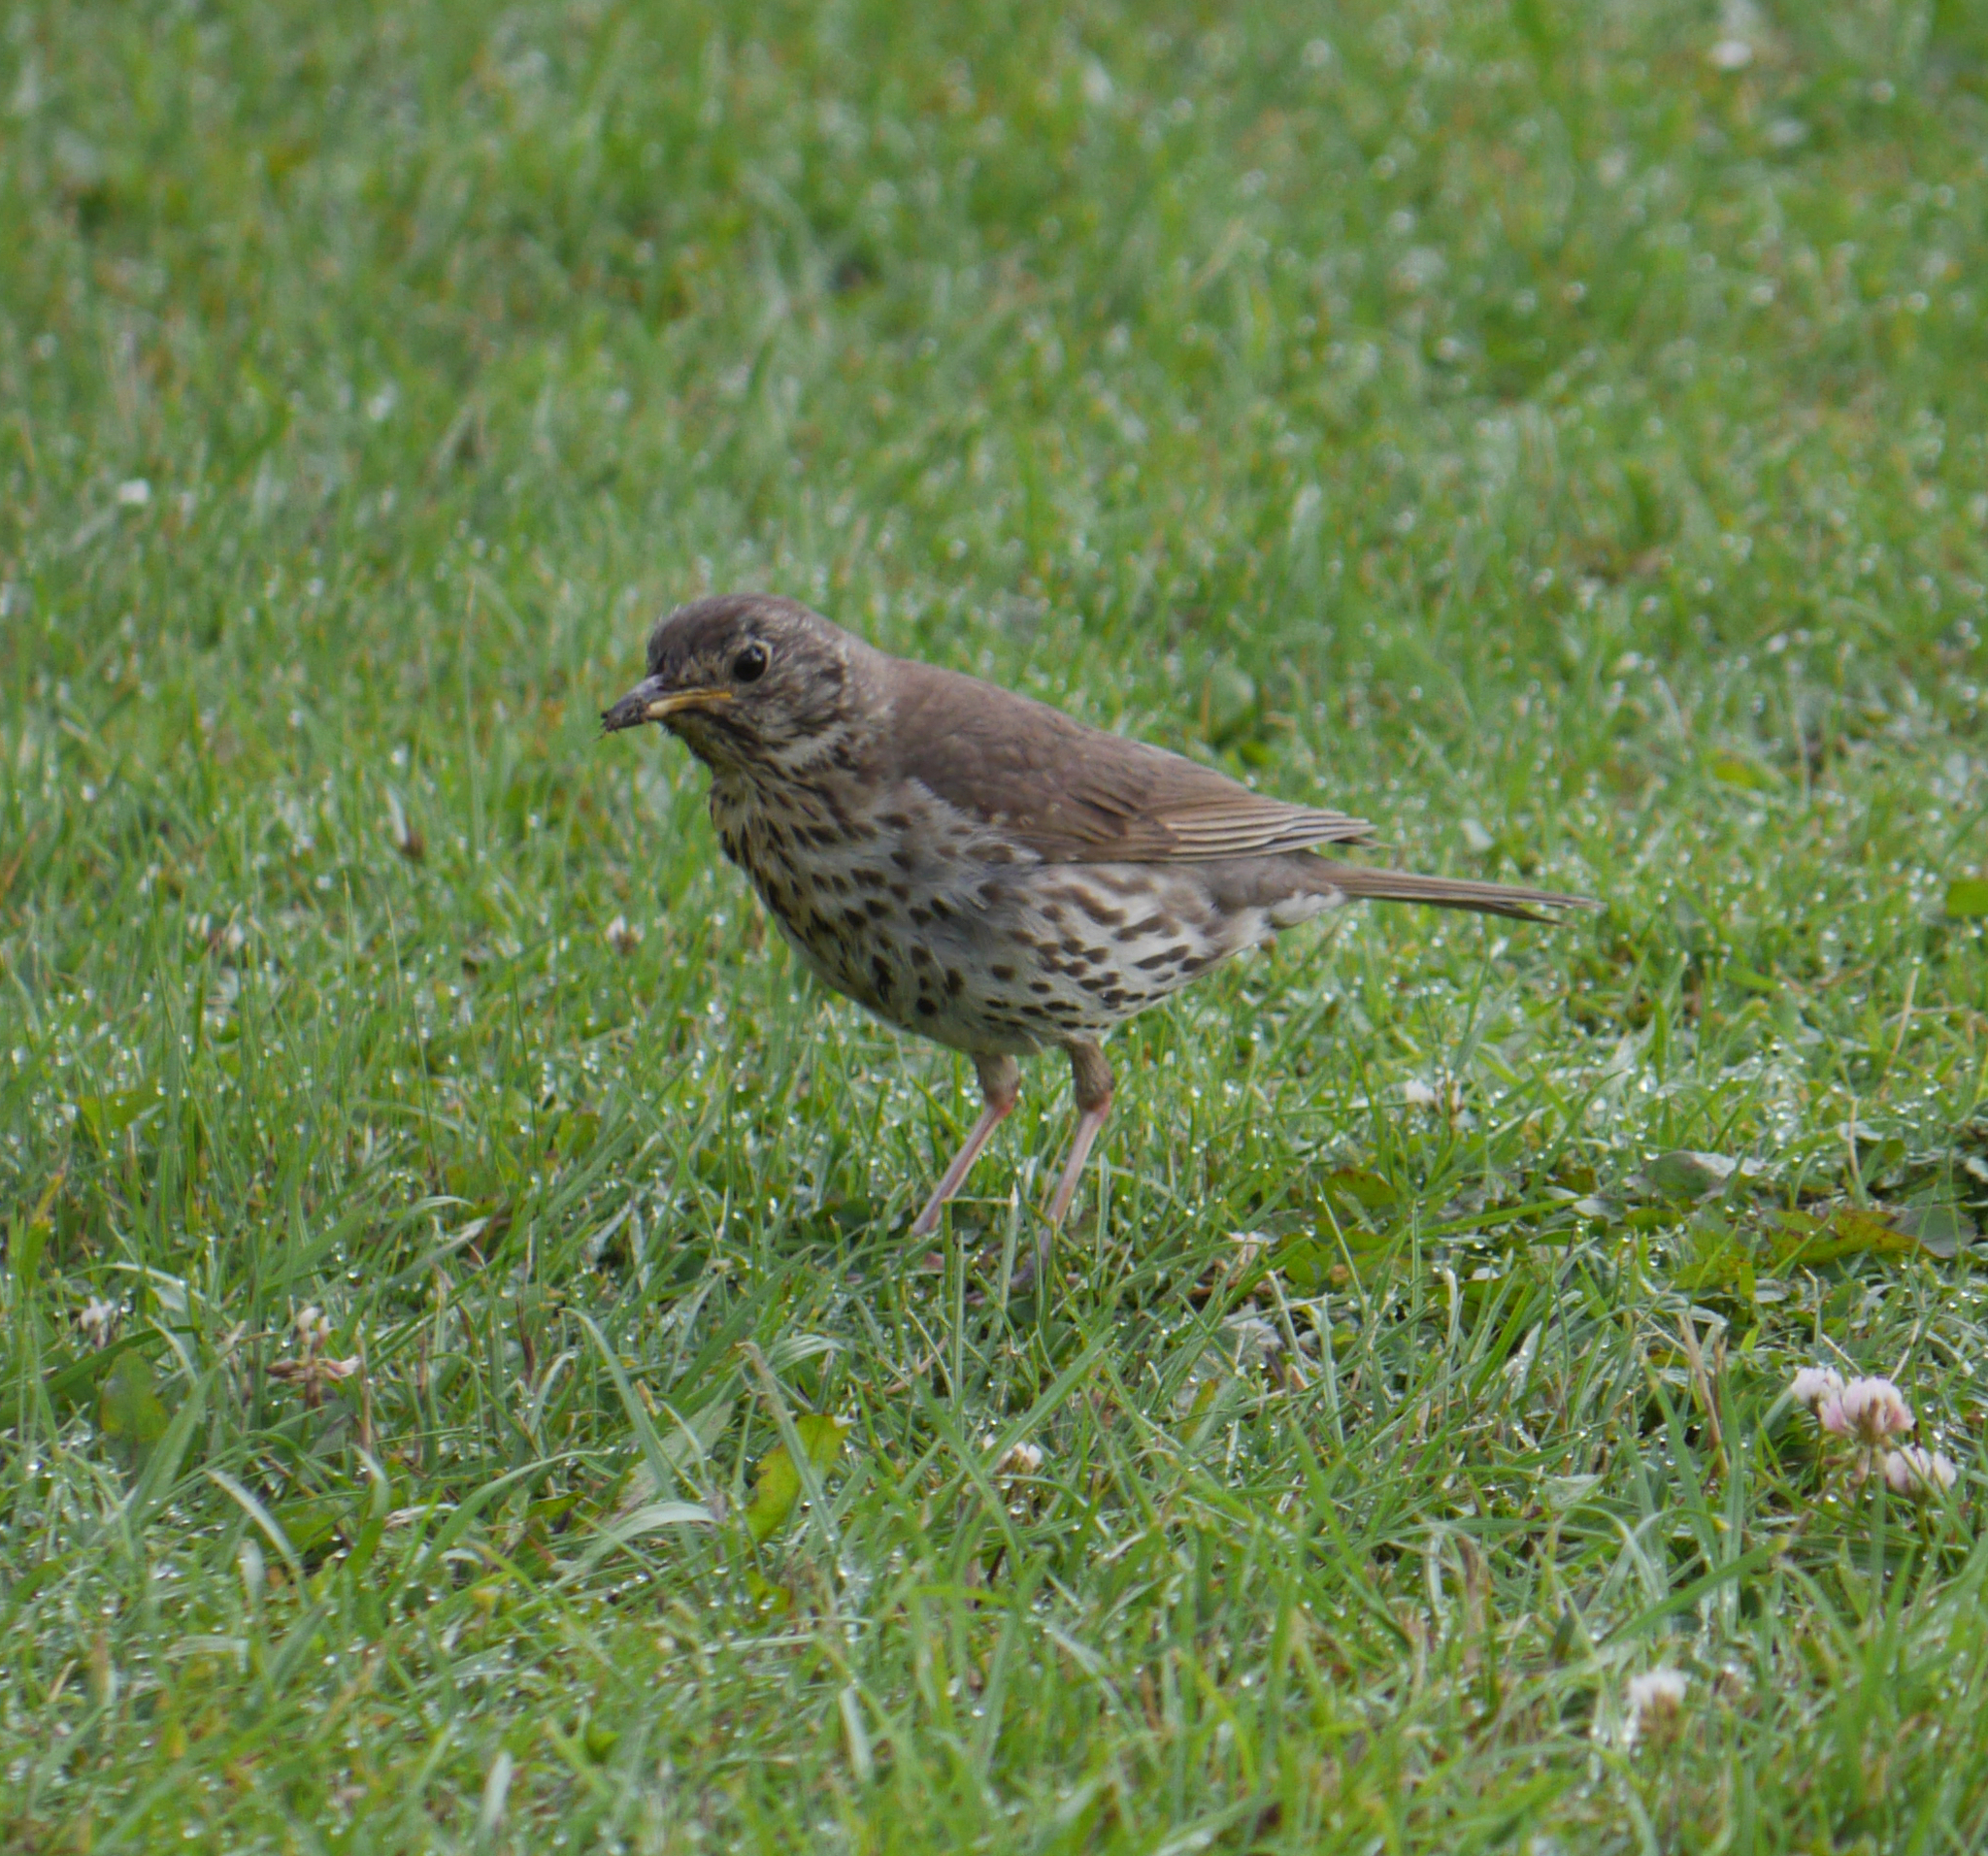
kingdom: Animalia
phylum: Chordata
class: Aves
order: Passeriformes
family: Turdidae
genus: Turdus
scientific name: Turdus philomelos
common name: Song thrush
